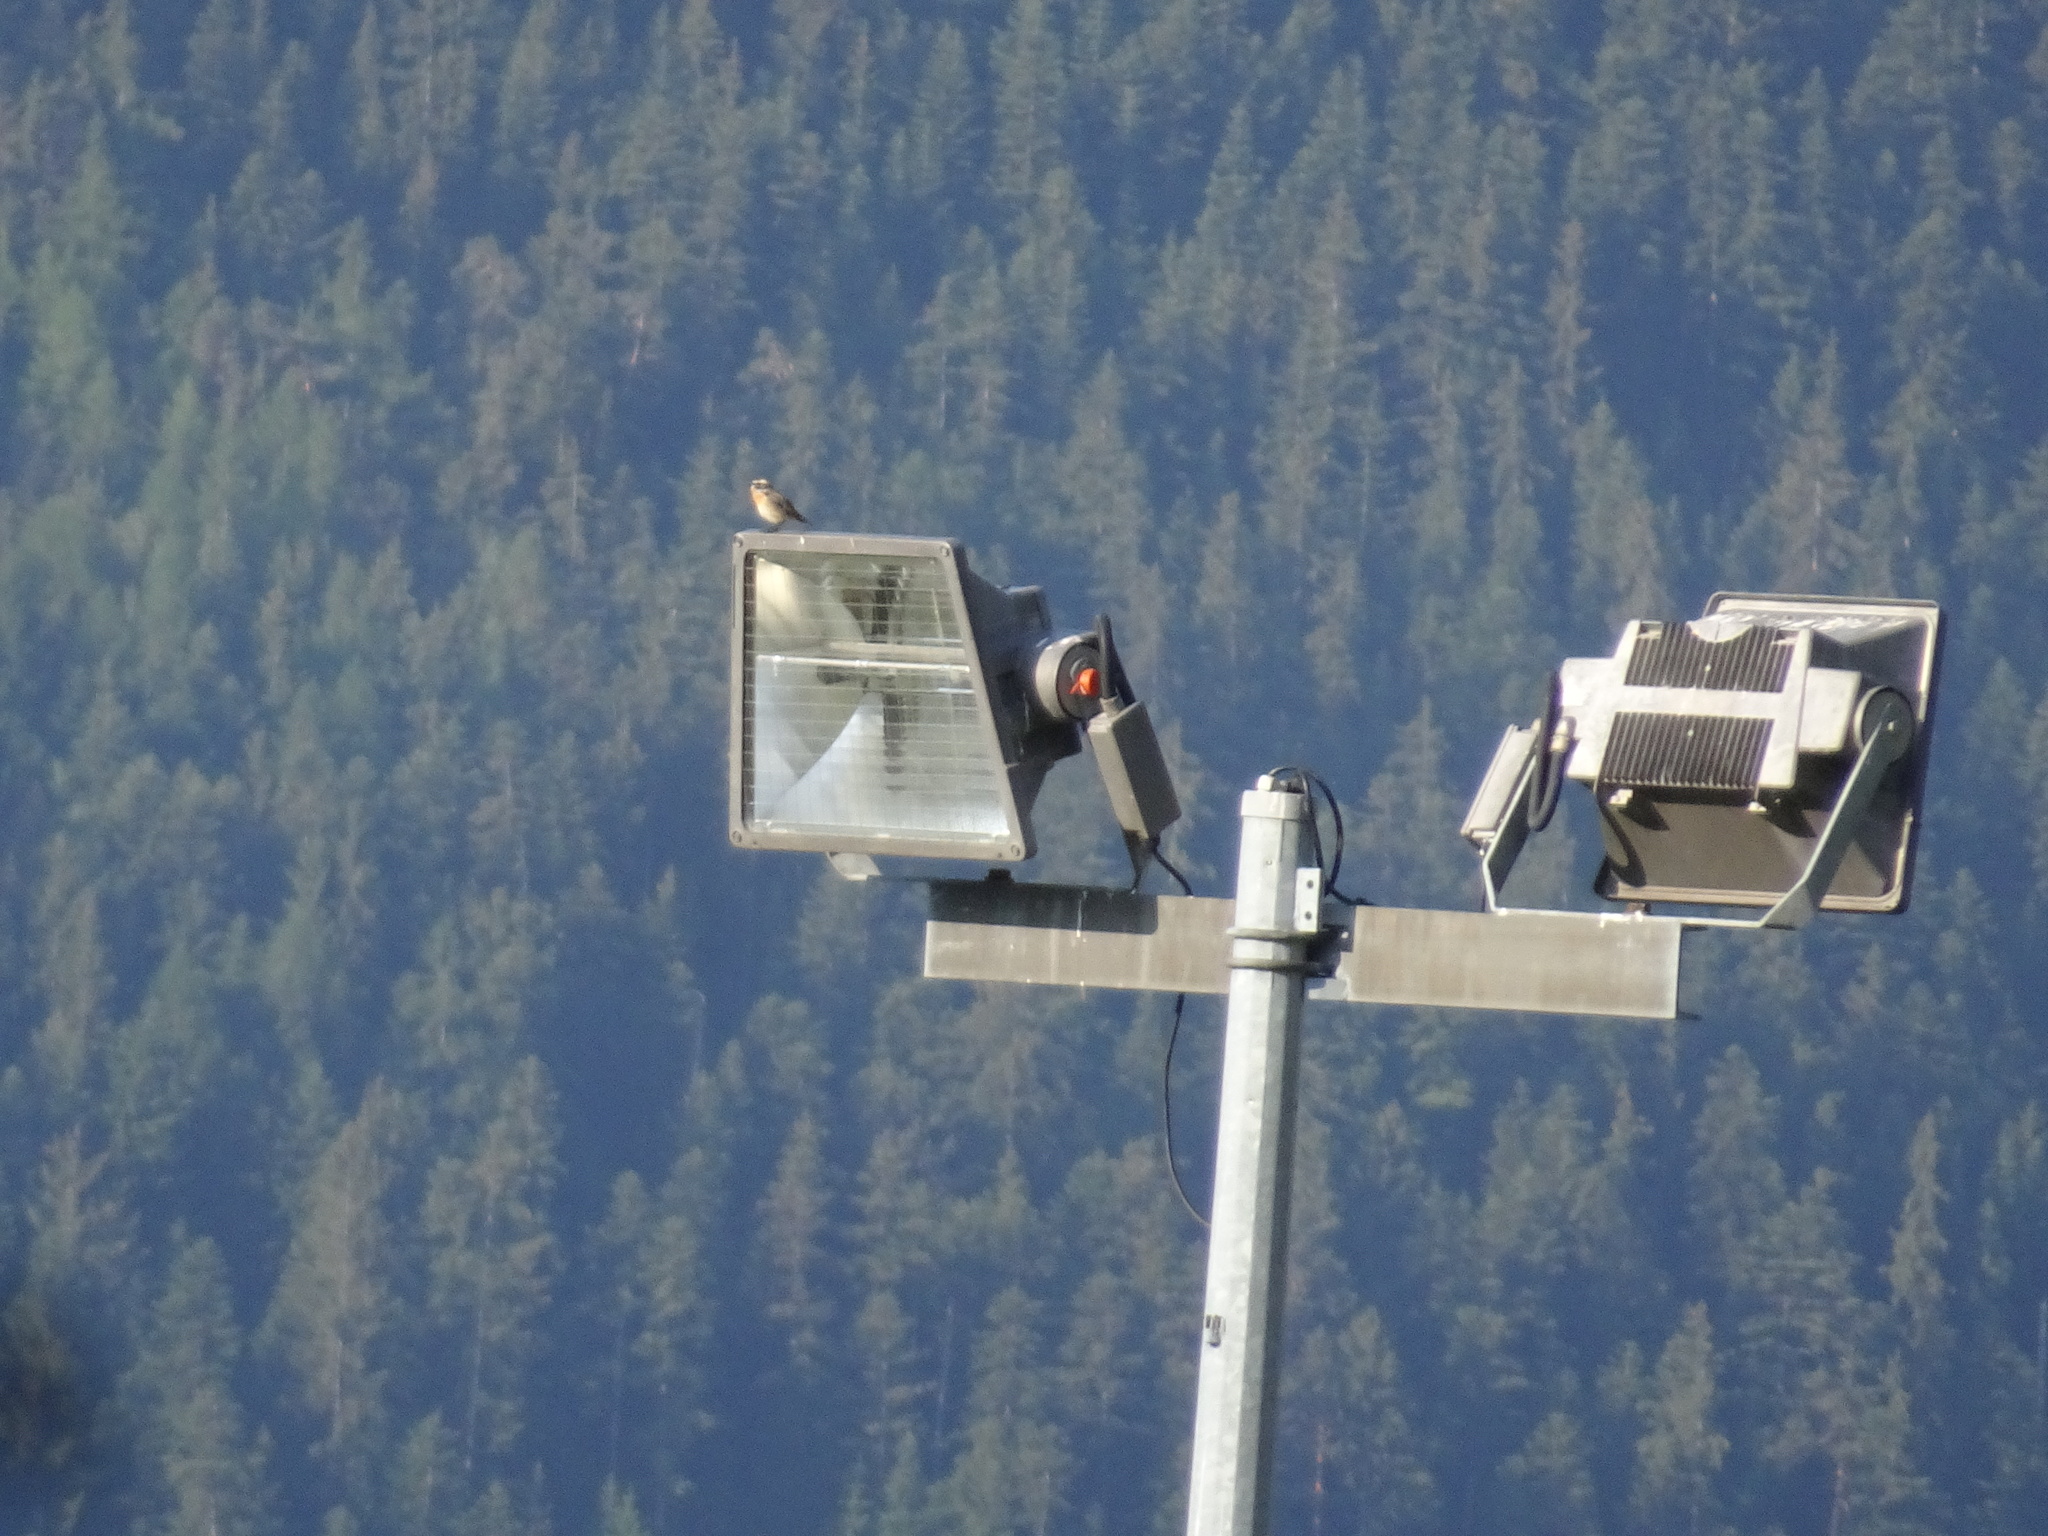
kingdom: Animalia
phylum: Chordata
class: Aves
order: Passeriformes
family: Muscicapidae
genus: Saxicola
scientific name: Saxicola rubetra
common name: Whinchat
